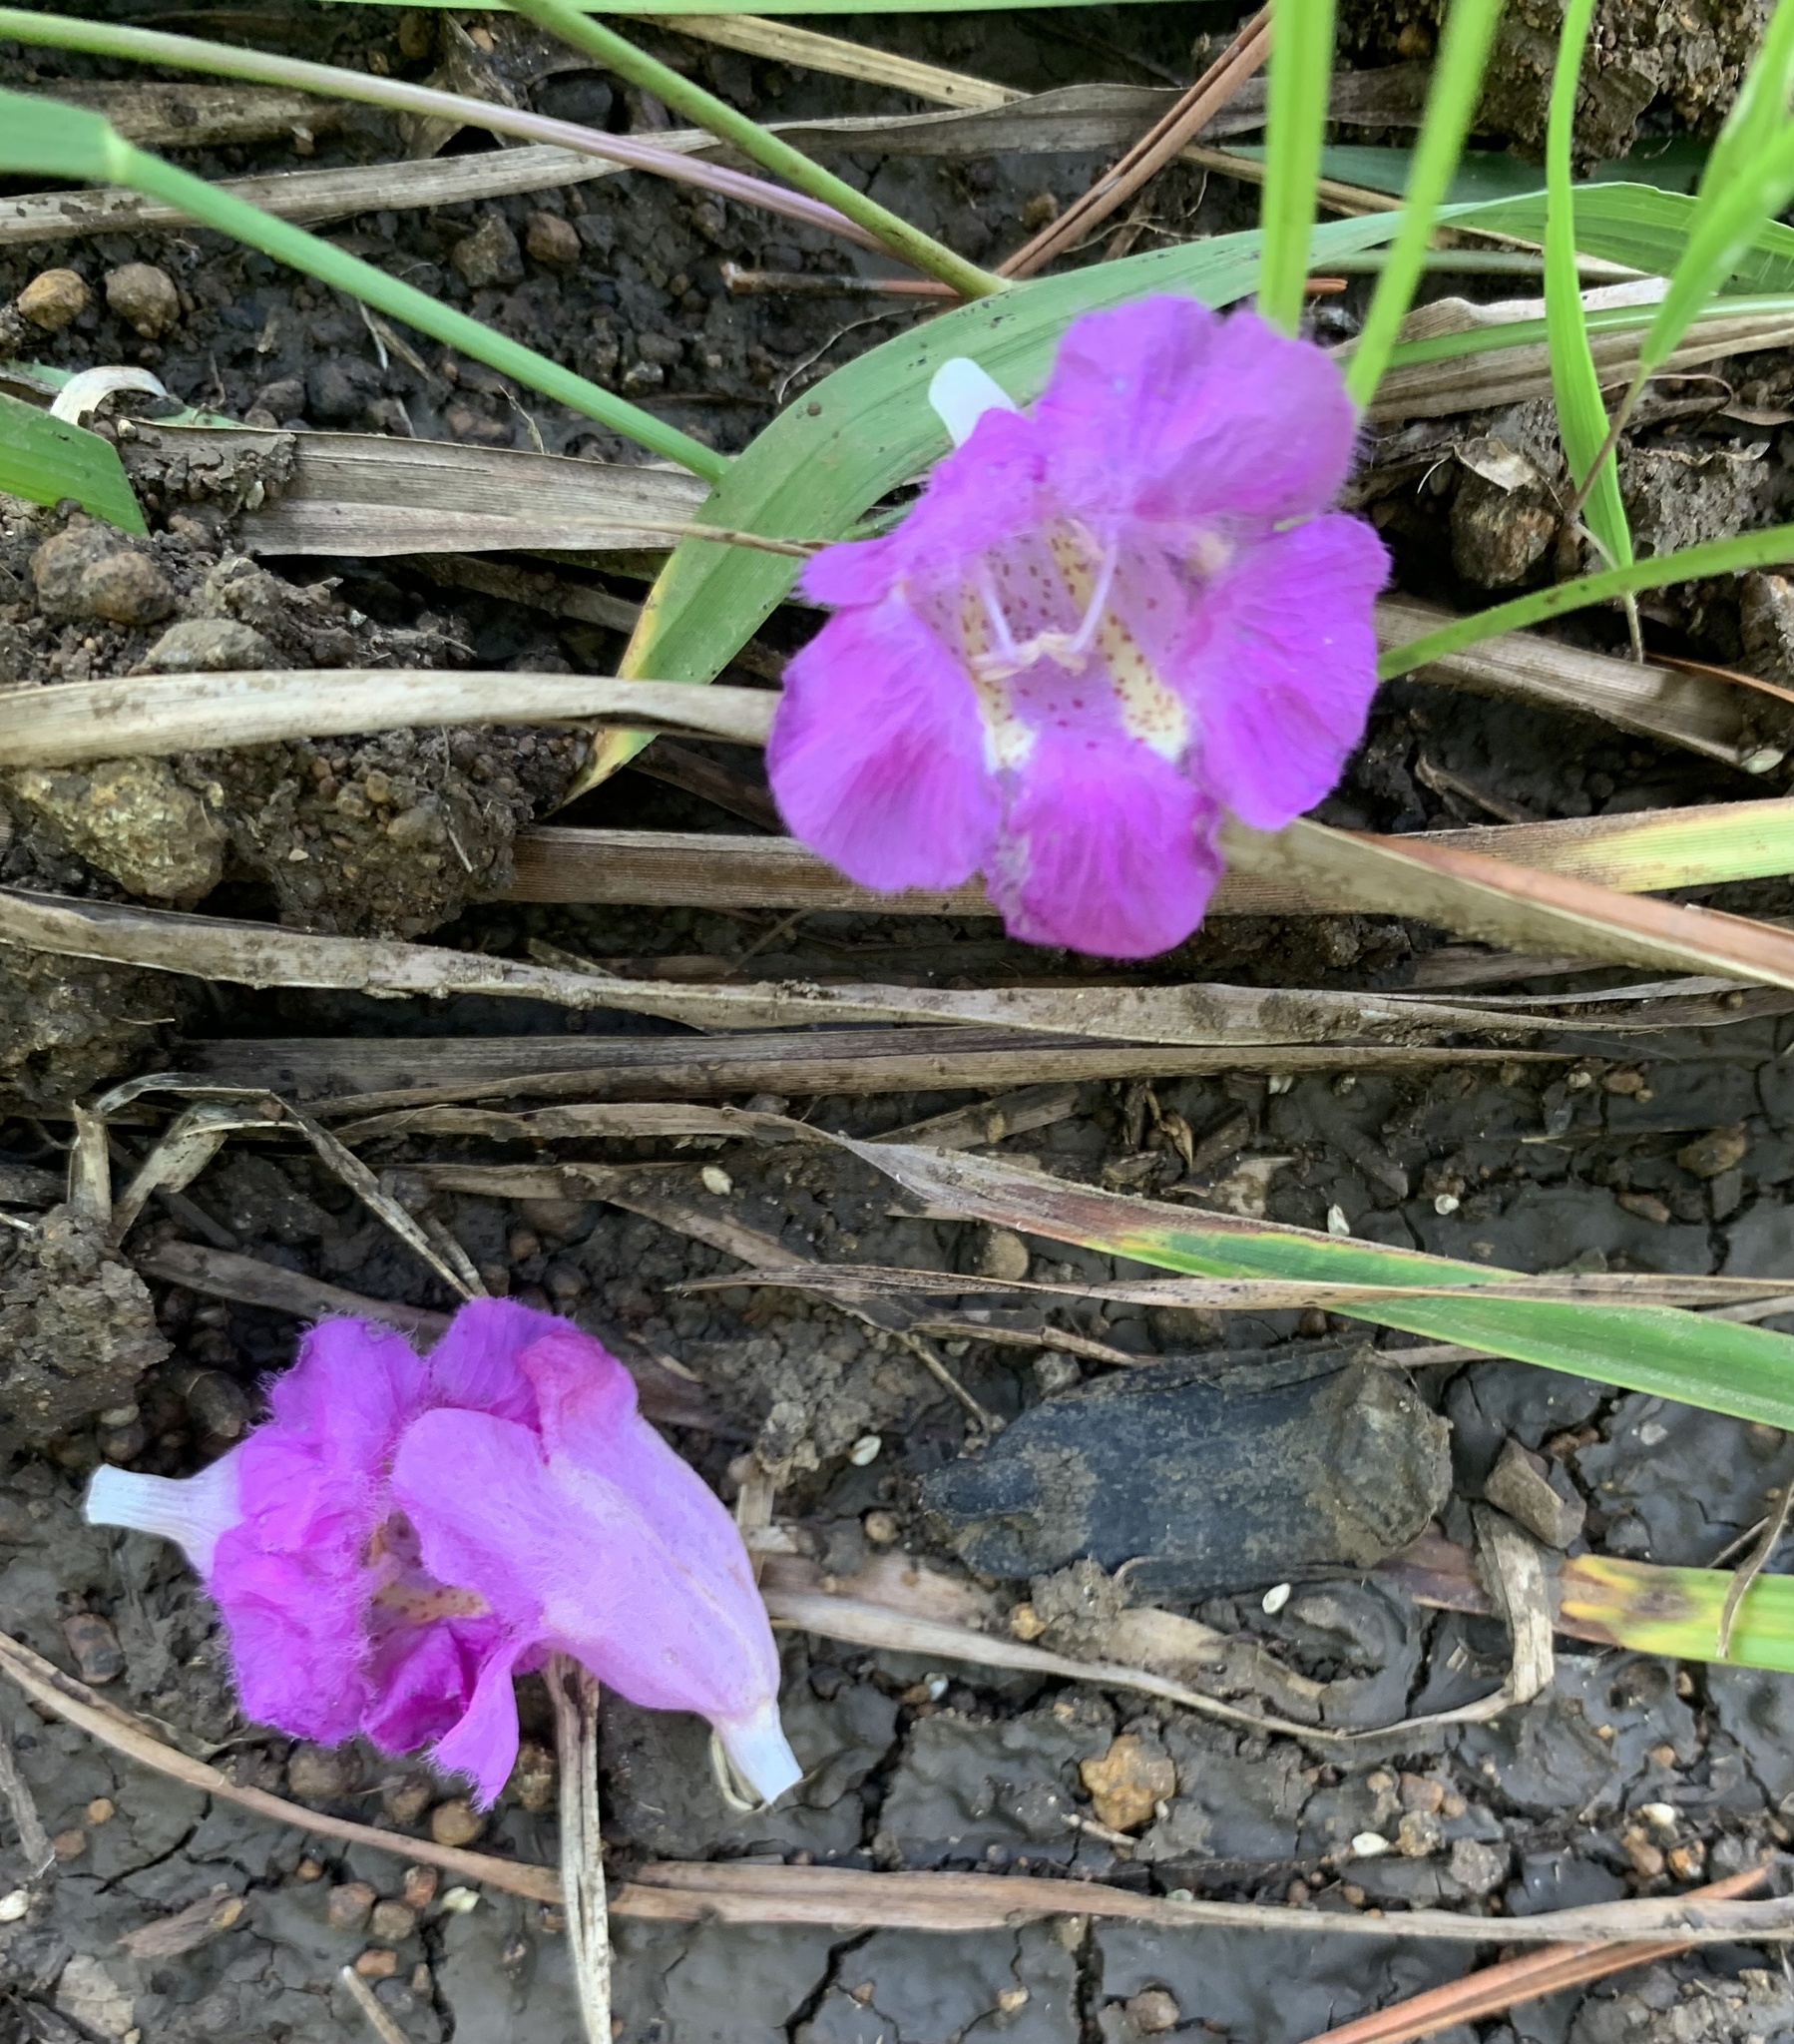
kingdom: Plantae
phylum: Tracheophyta
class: Magnoliopsida
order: Lamiales
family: Orobanchaceae
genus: Agalinis
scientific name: Agalinis purpurea
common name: Purple false foxglove
